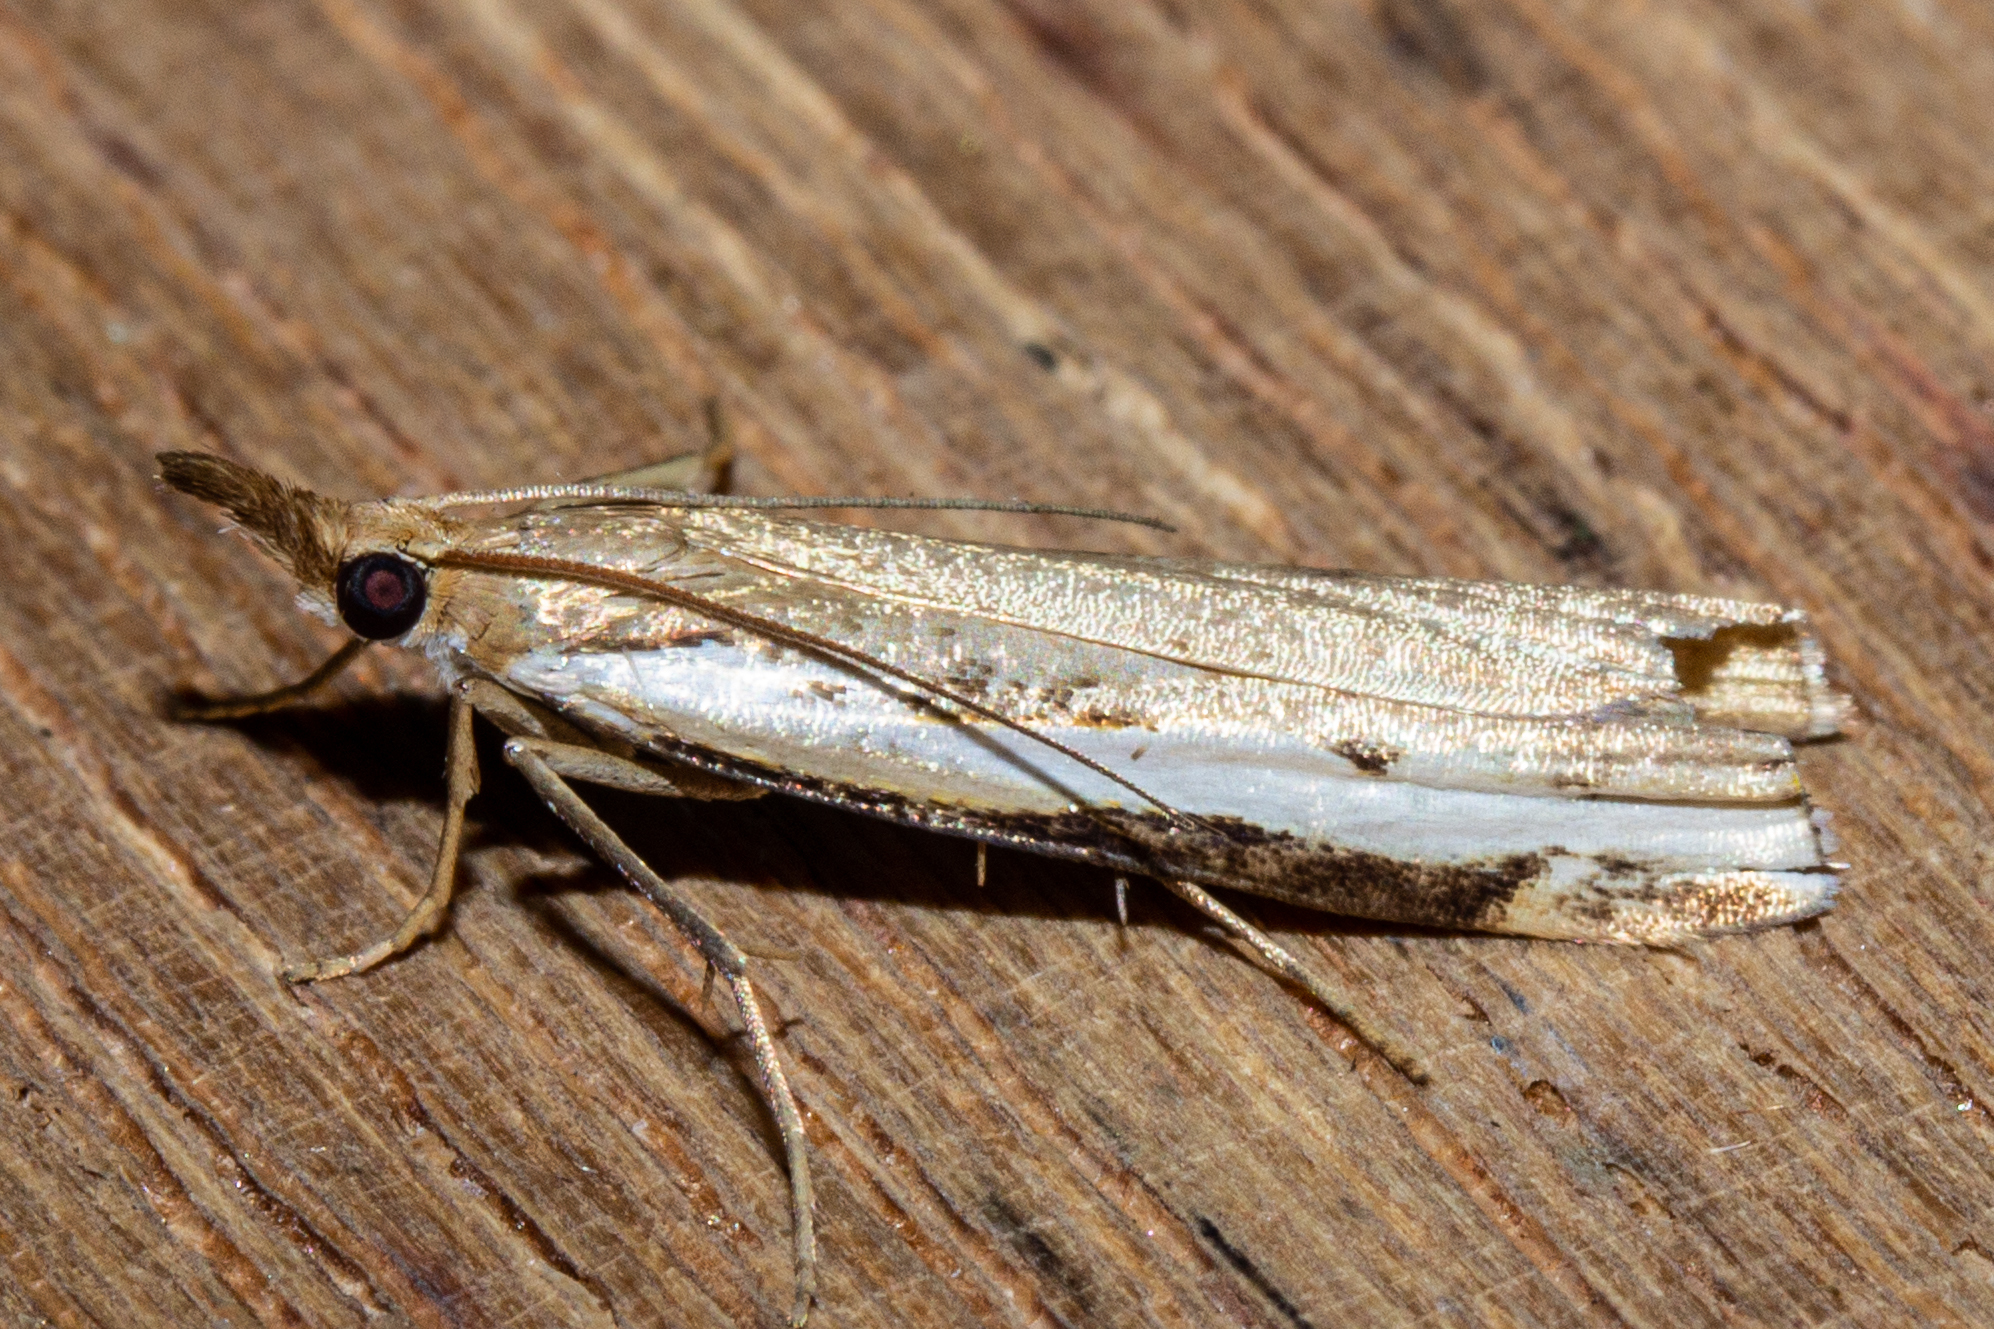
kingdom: Animalia
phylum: Arthropoda
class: Insecta
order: Lepidoptera
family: Crambidae
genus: Orocrambus
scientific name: Orocrambus flexuosellus
